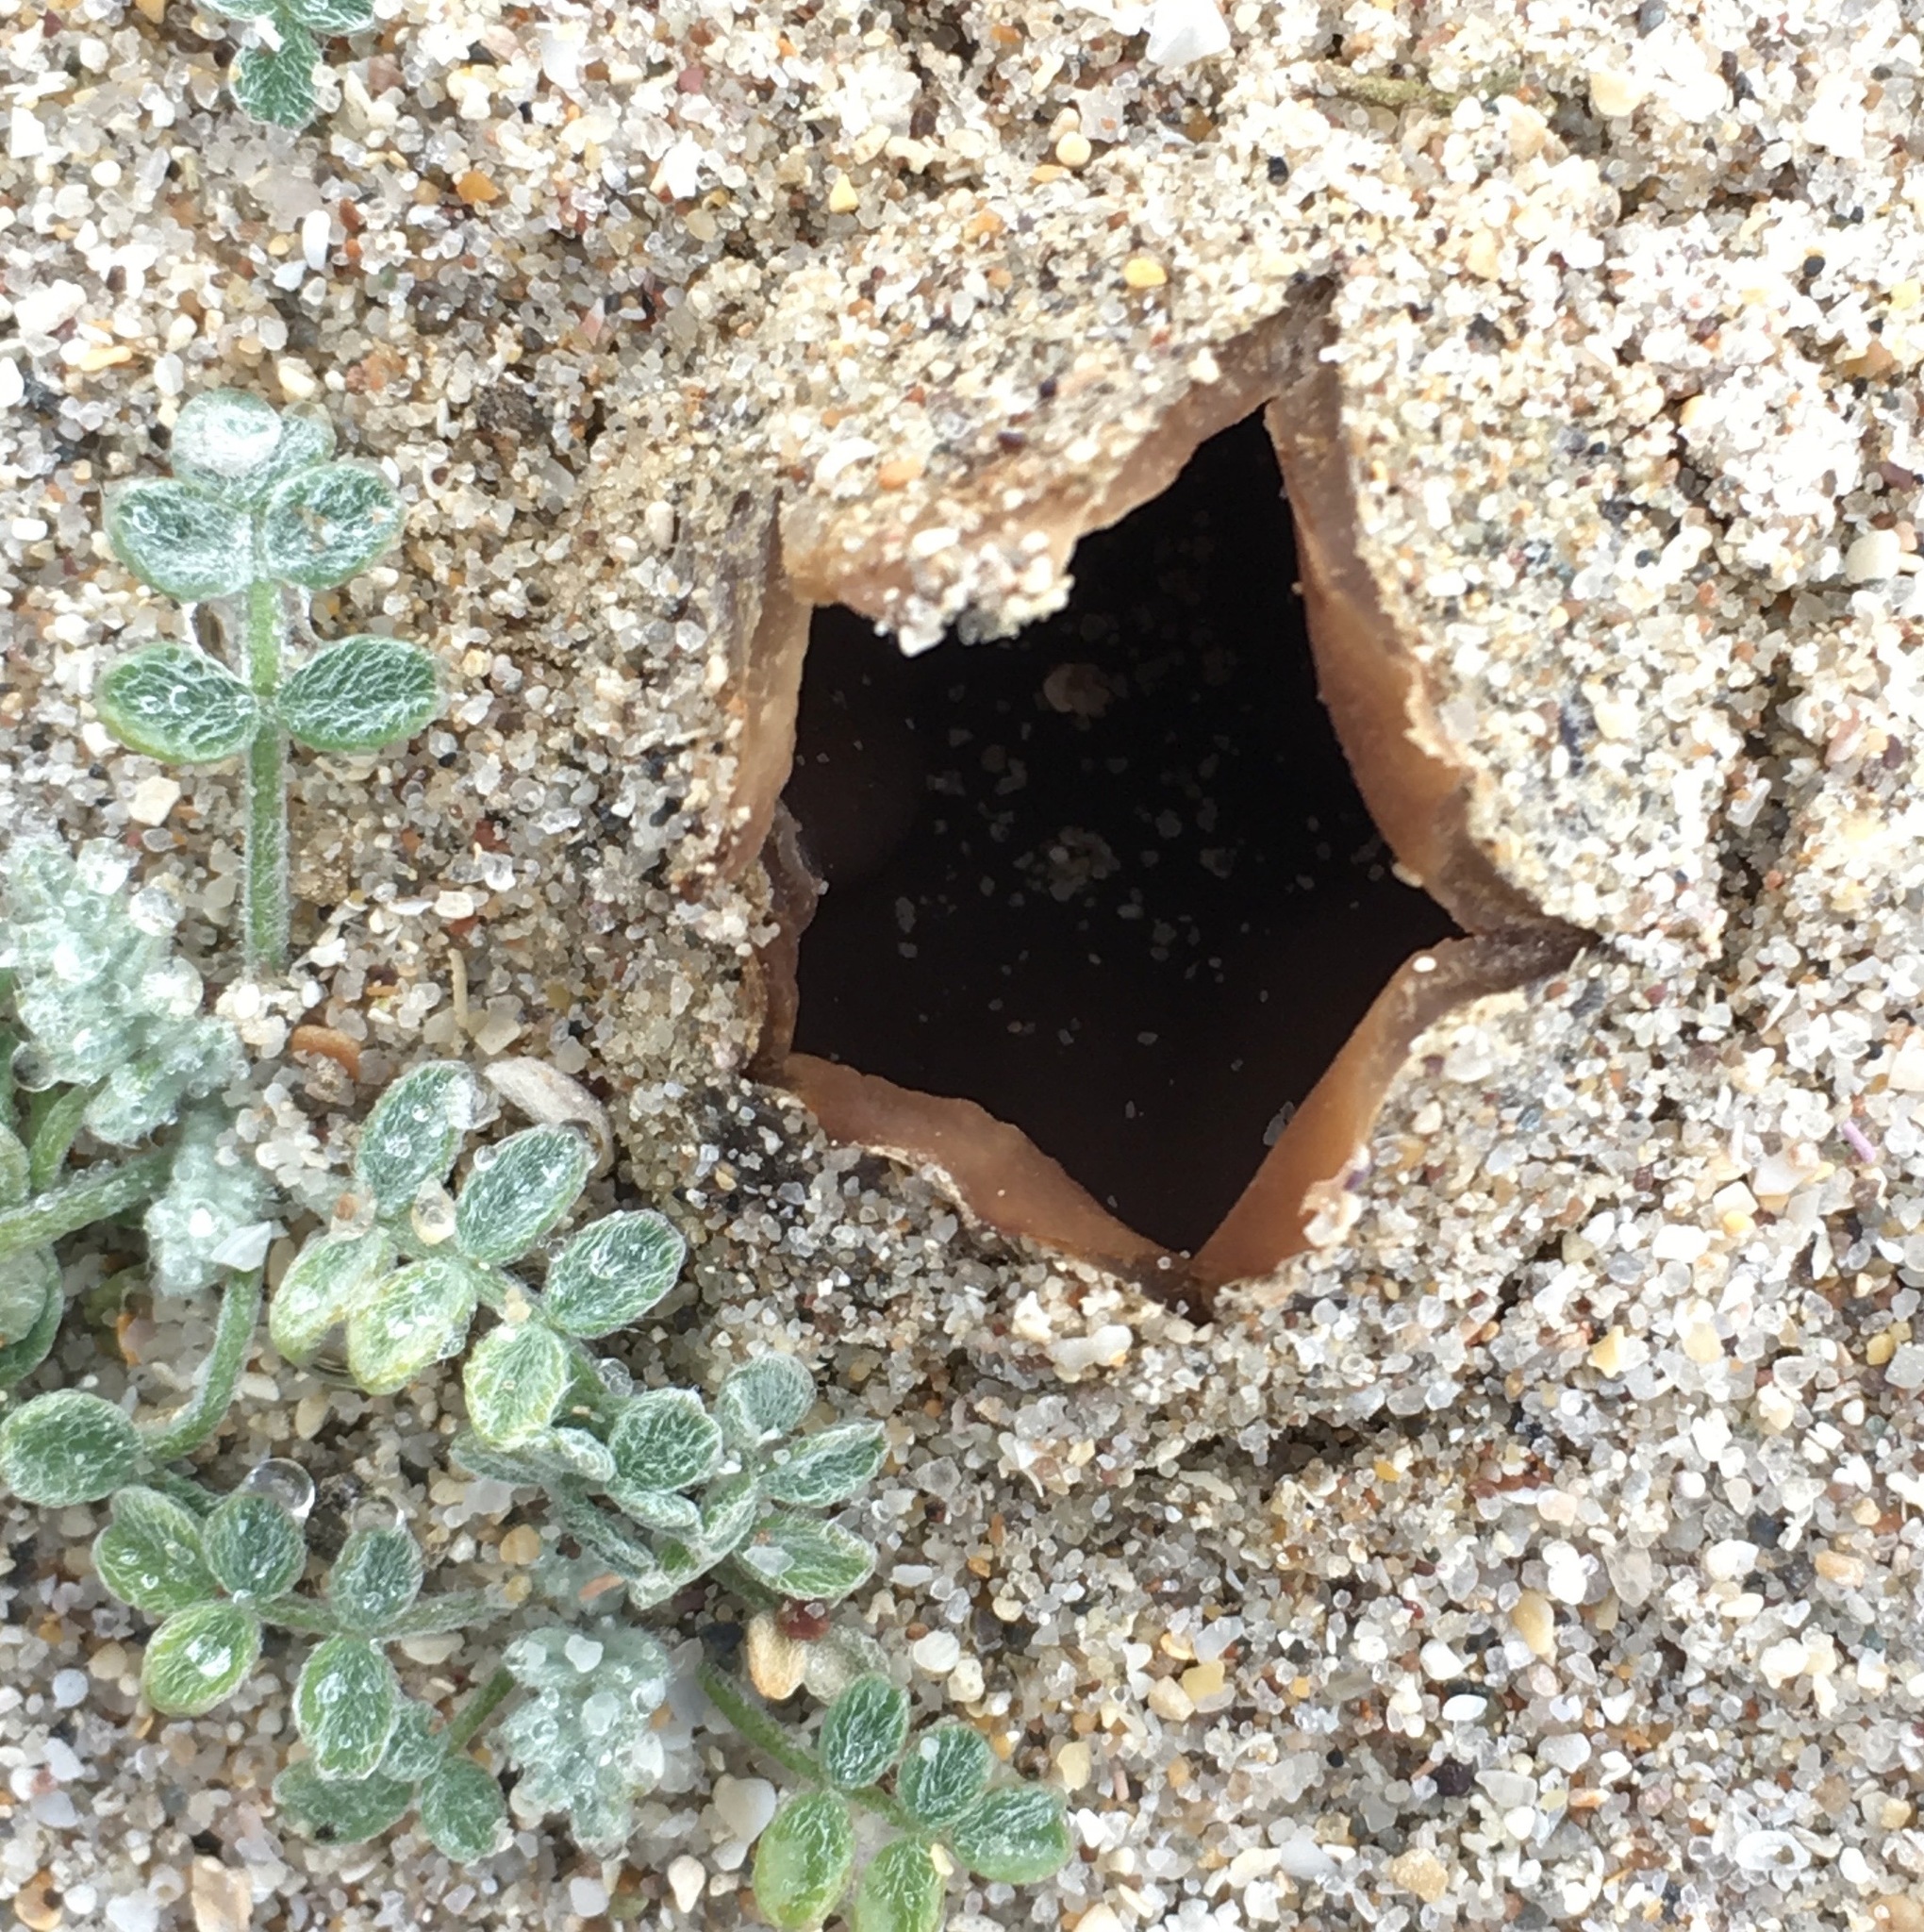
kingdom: Fungi
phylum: Ascomycota
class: Pezizomycetes
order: Pezizales
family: Pezizaceae
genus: Peziza
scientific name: Peziza ammophila
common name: Dune cup
